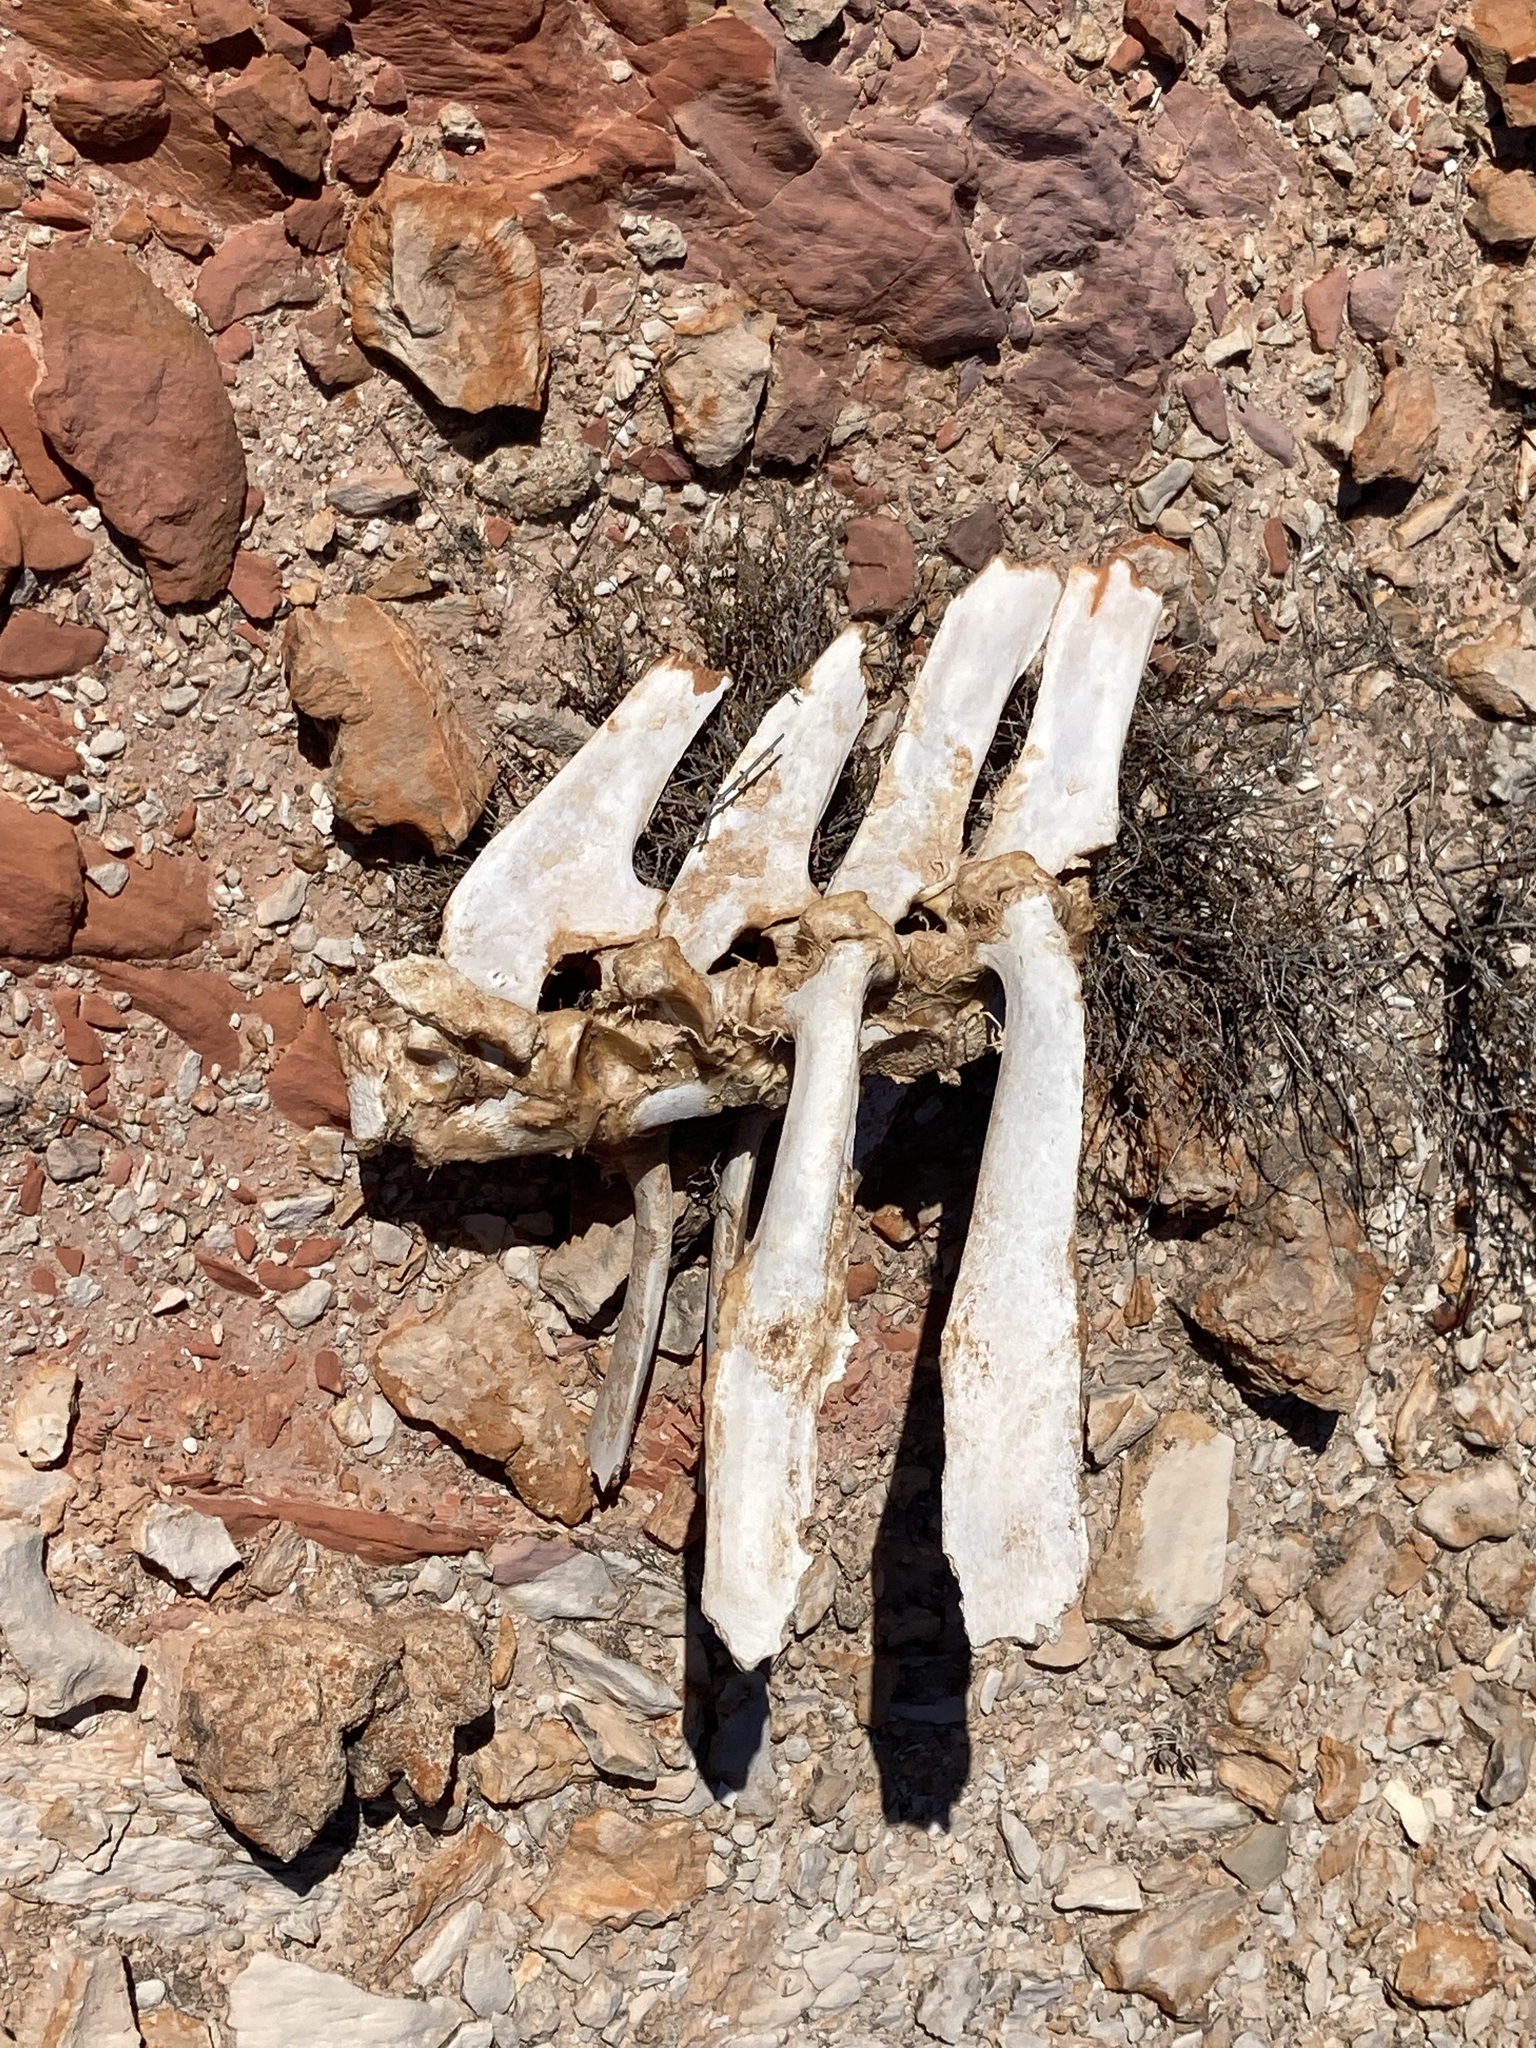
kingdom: Animalia
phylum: Chordata
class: Mammalia
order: Artiodactyla
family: Camelidae
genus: Camelus
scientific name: Camelus dromedarius
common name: One-humped camel
